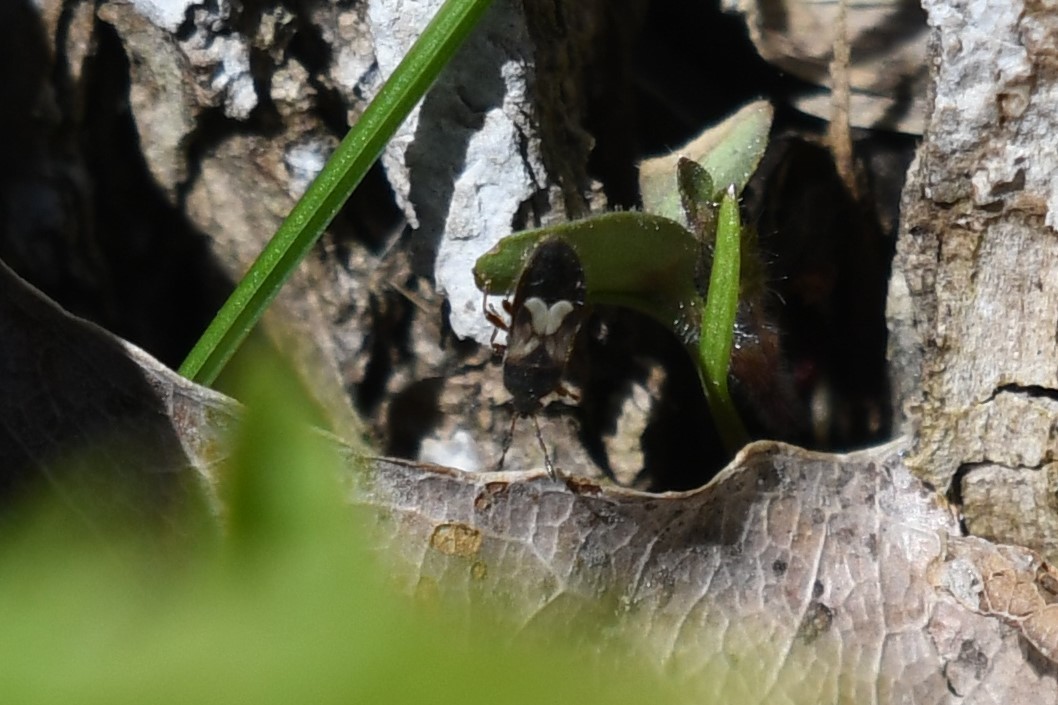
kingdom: Animalia
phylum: Arthropoda
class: Insecta
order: Hemiptera
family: Blissidae
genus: Blissus
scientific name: Blissus leucopterus
